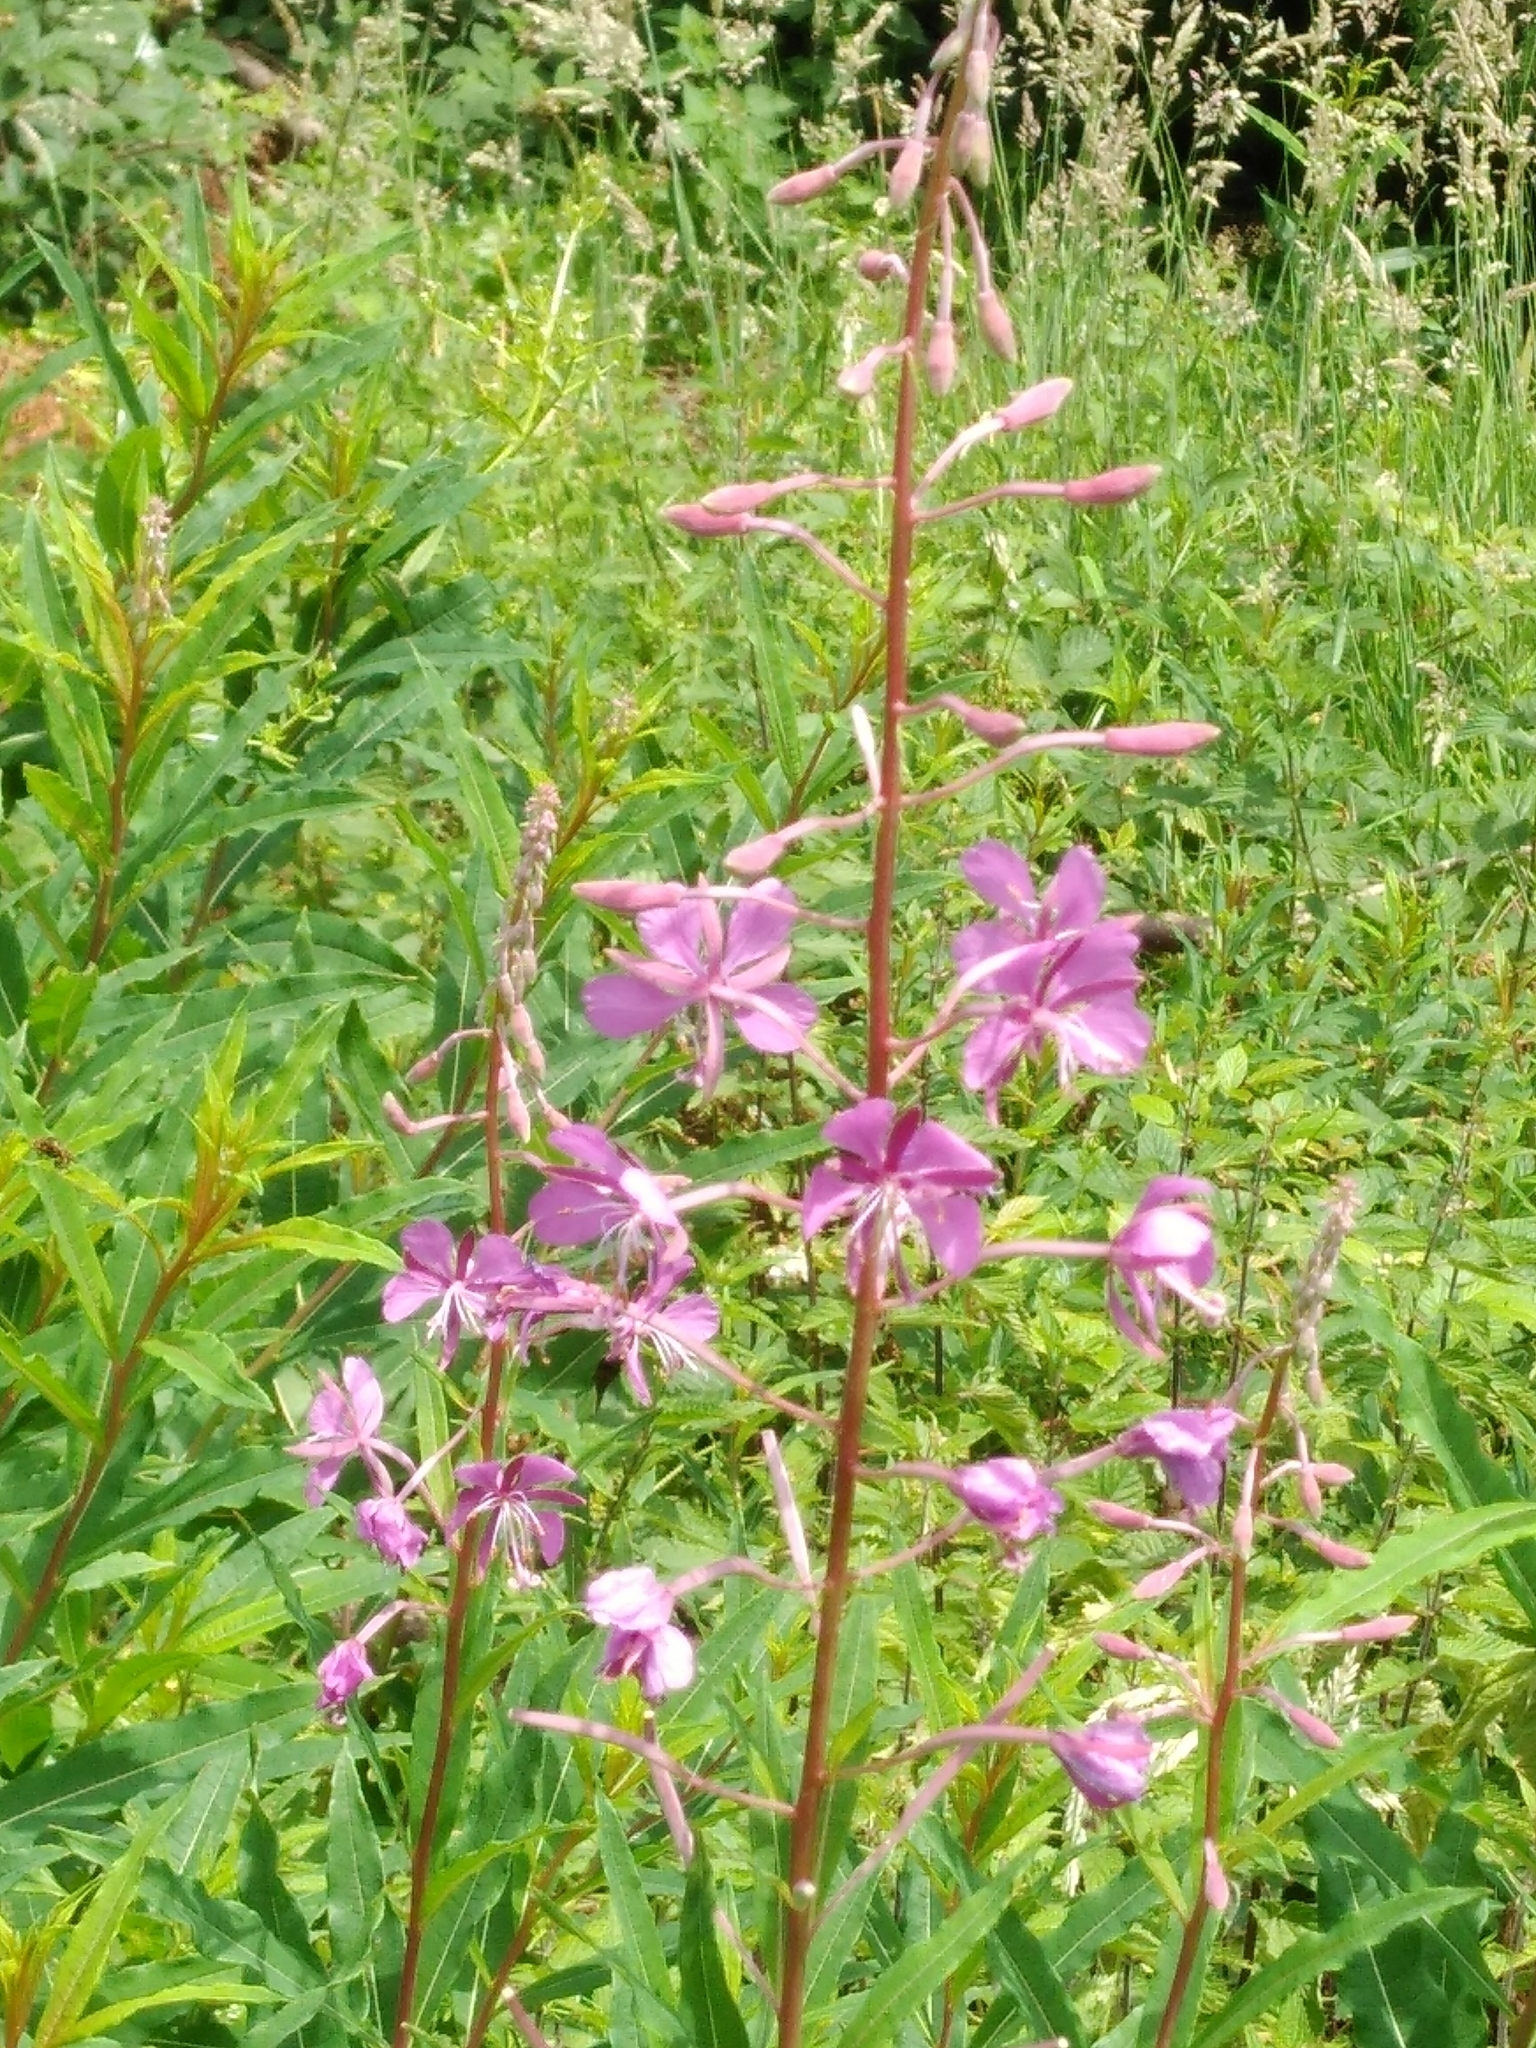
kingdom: Plantae
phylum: Tracheophyta
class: Magnoliopsida
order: Myrtales
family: Onagraceae
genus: Chamaenerion
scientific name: Chamaenerion angustifolium
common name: Fireweed
